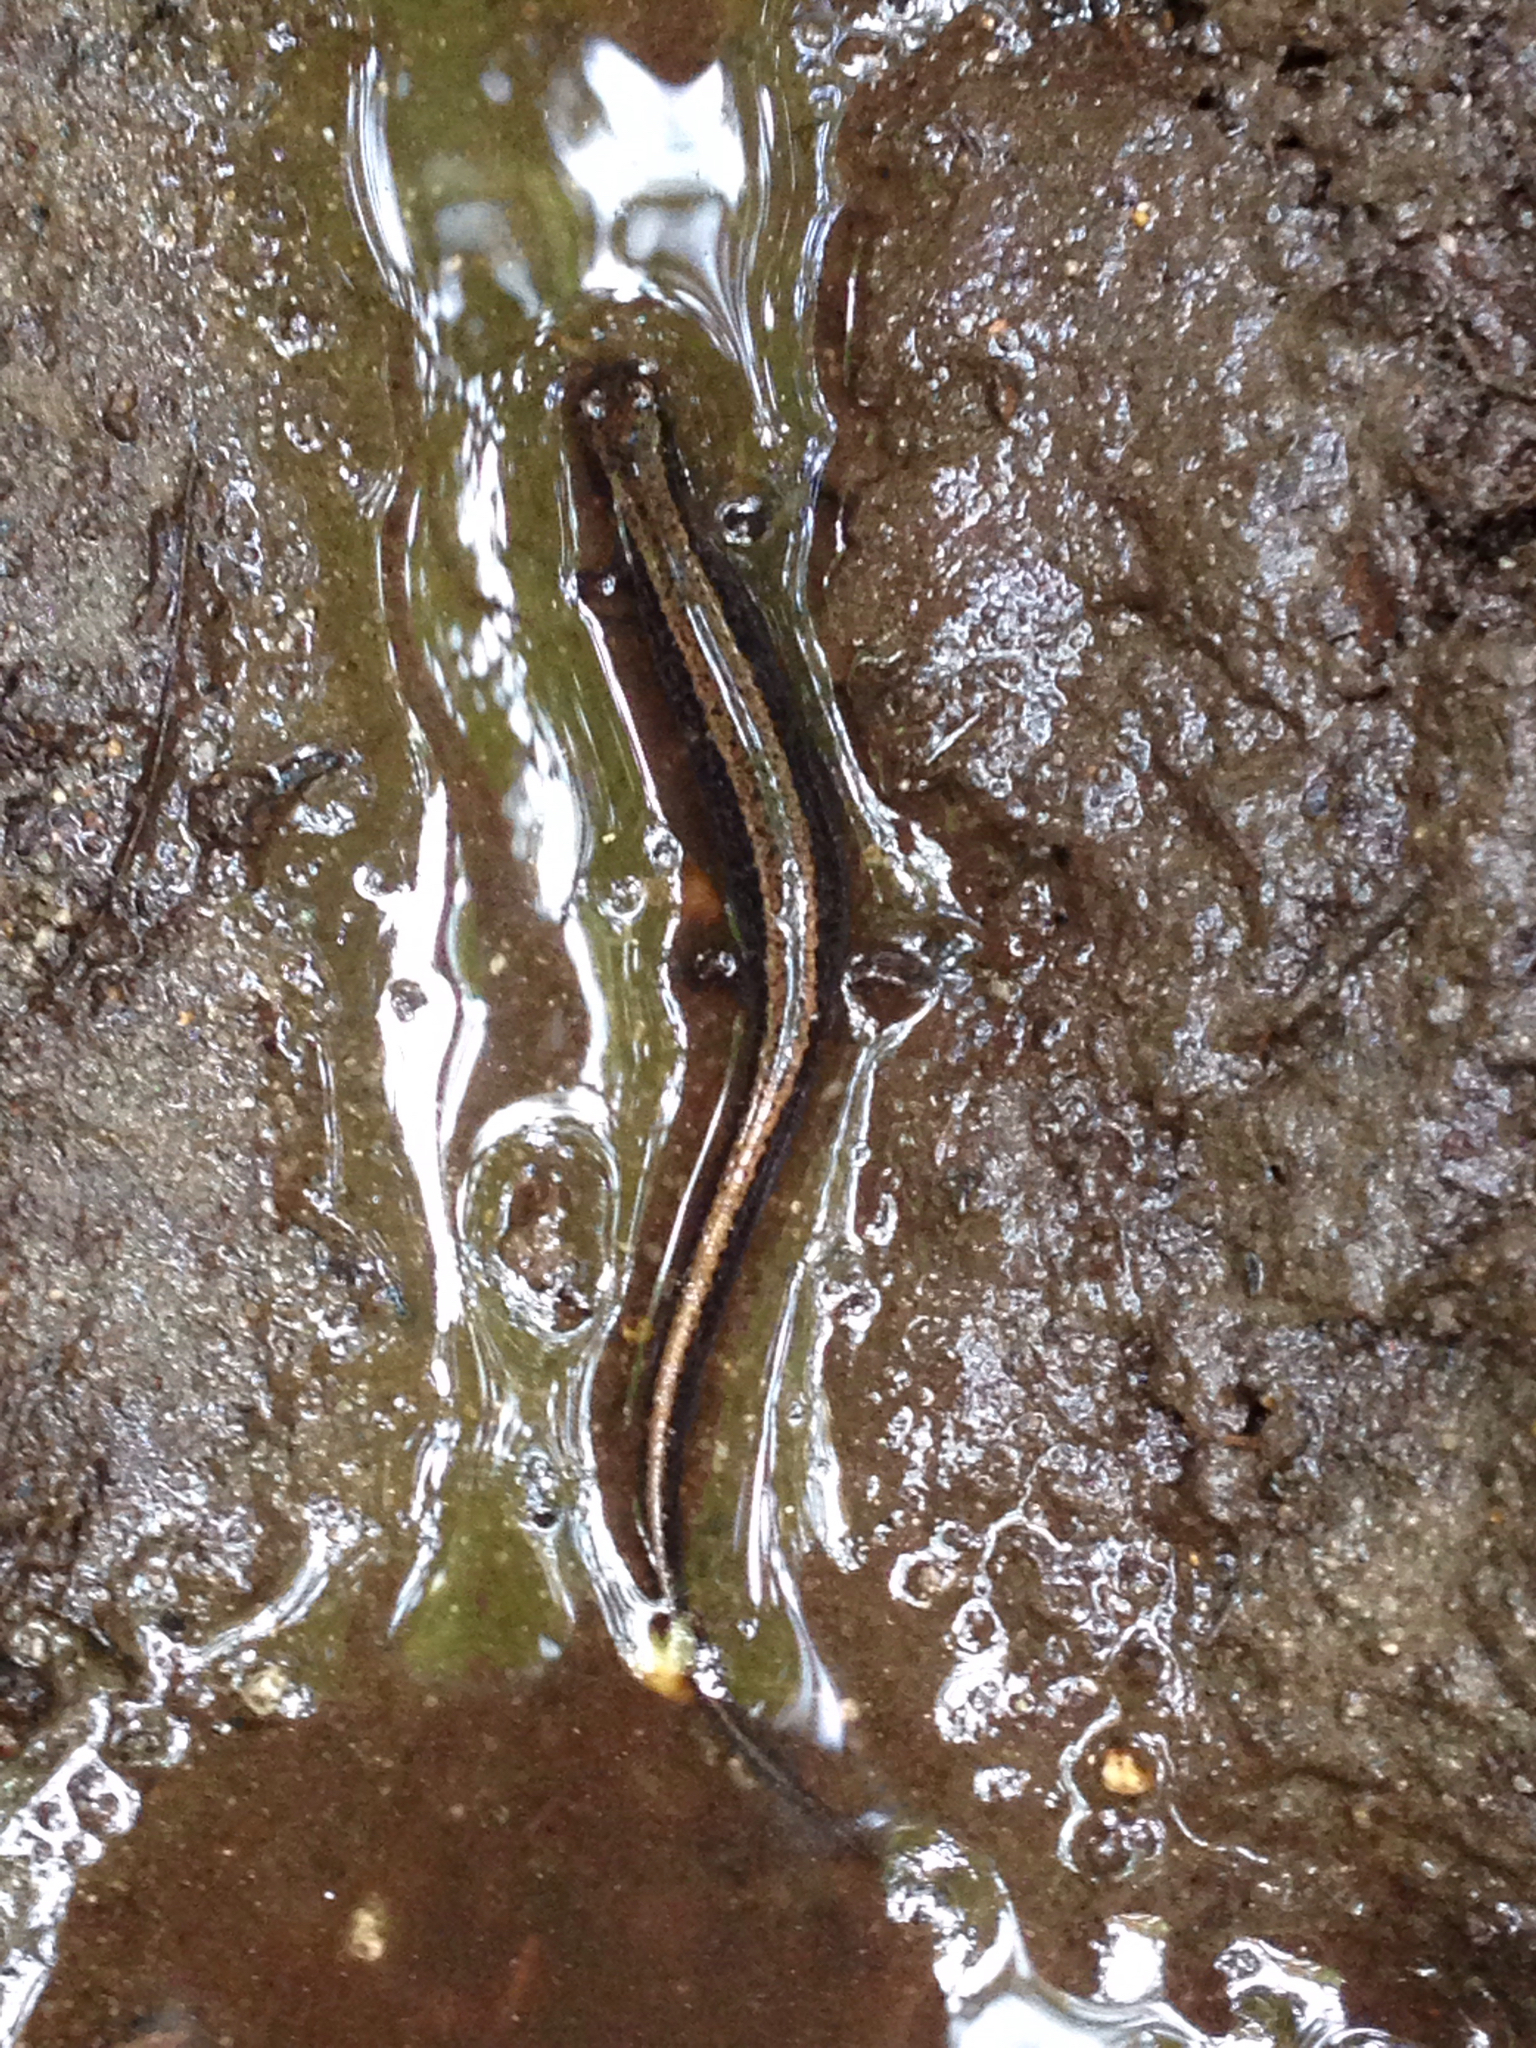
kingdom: Animalia
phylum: Chordata
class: Amphibia
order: Caudata
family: Plethodontidae
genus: Eurycea
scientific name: Eurycea bislineata
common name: Northern two-lined salamander
